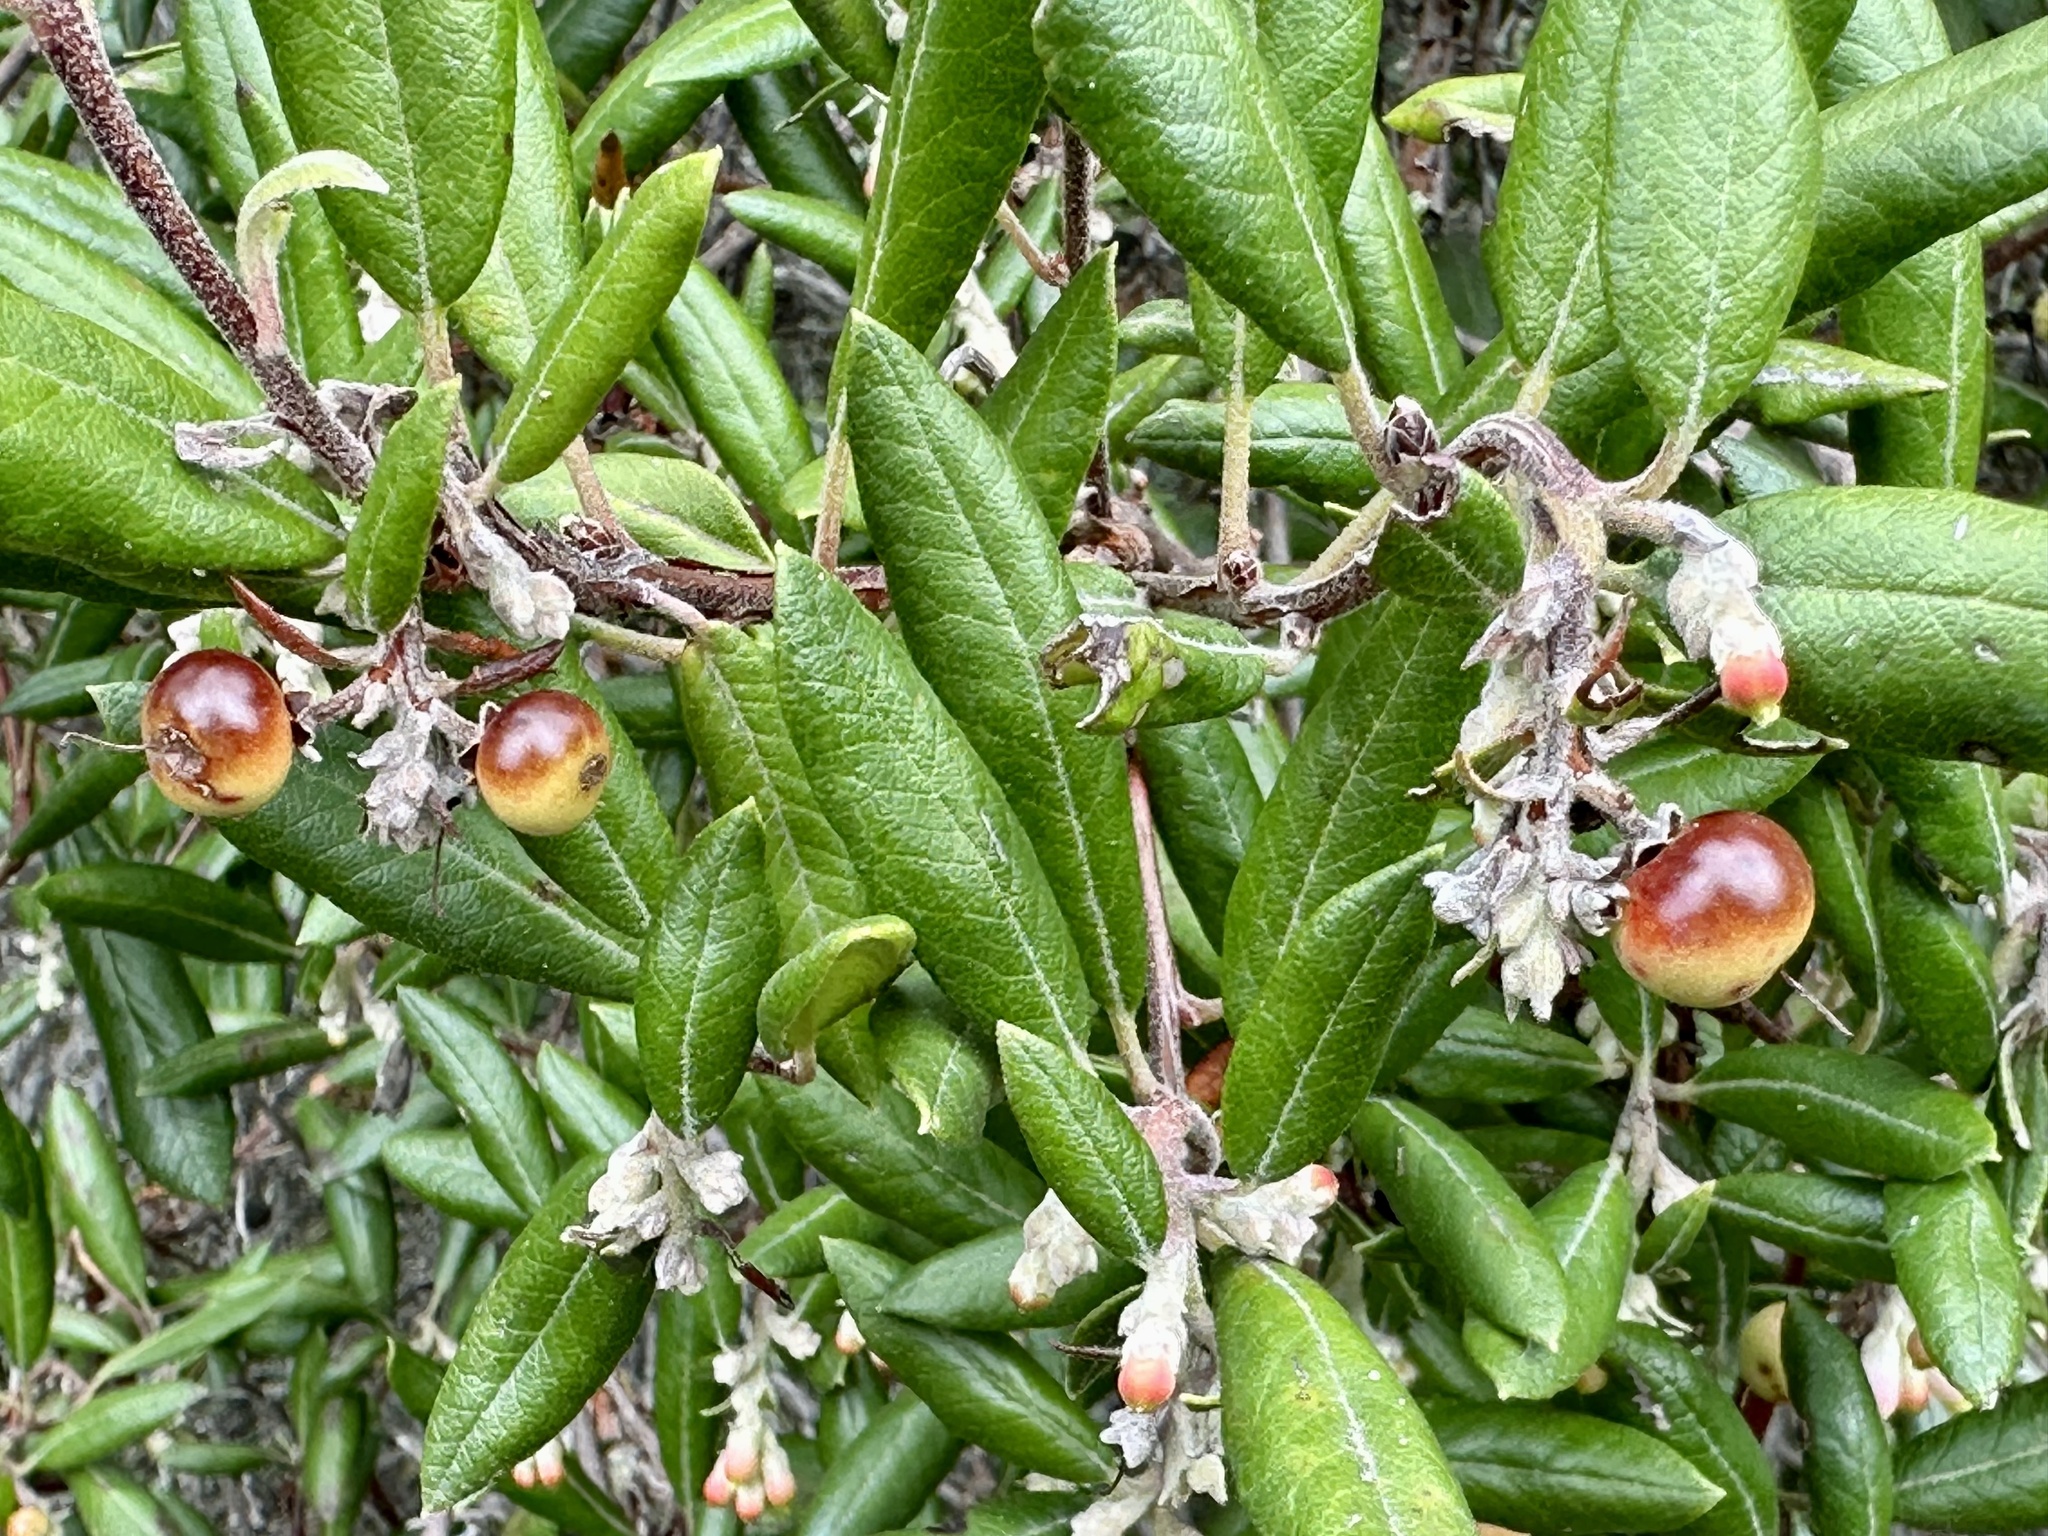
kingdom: Plantae
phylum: Tracheophyta
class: Magnoliopsida
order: Ericales
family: Ericaceae
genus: Arctostaphylos
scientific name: Arctostaphylos bicolor
